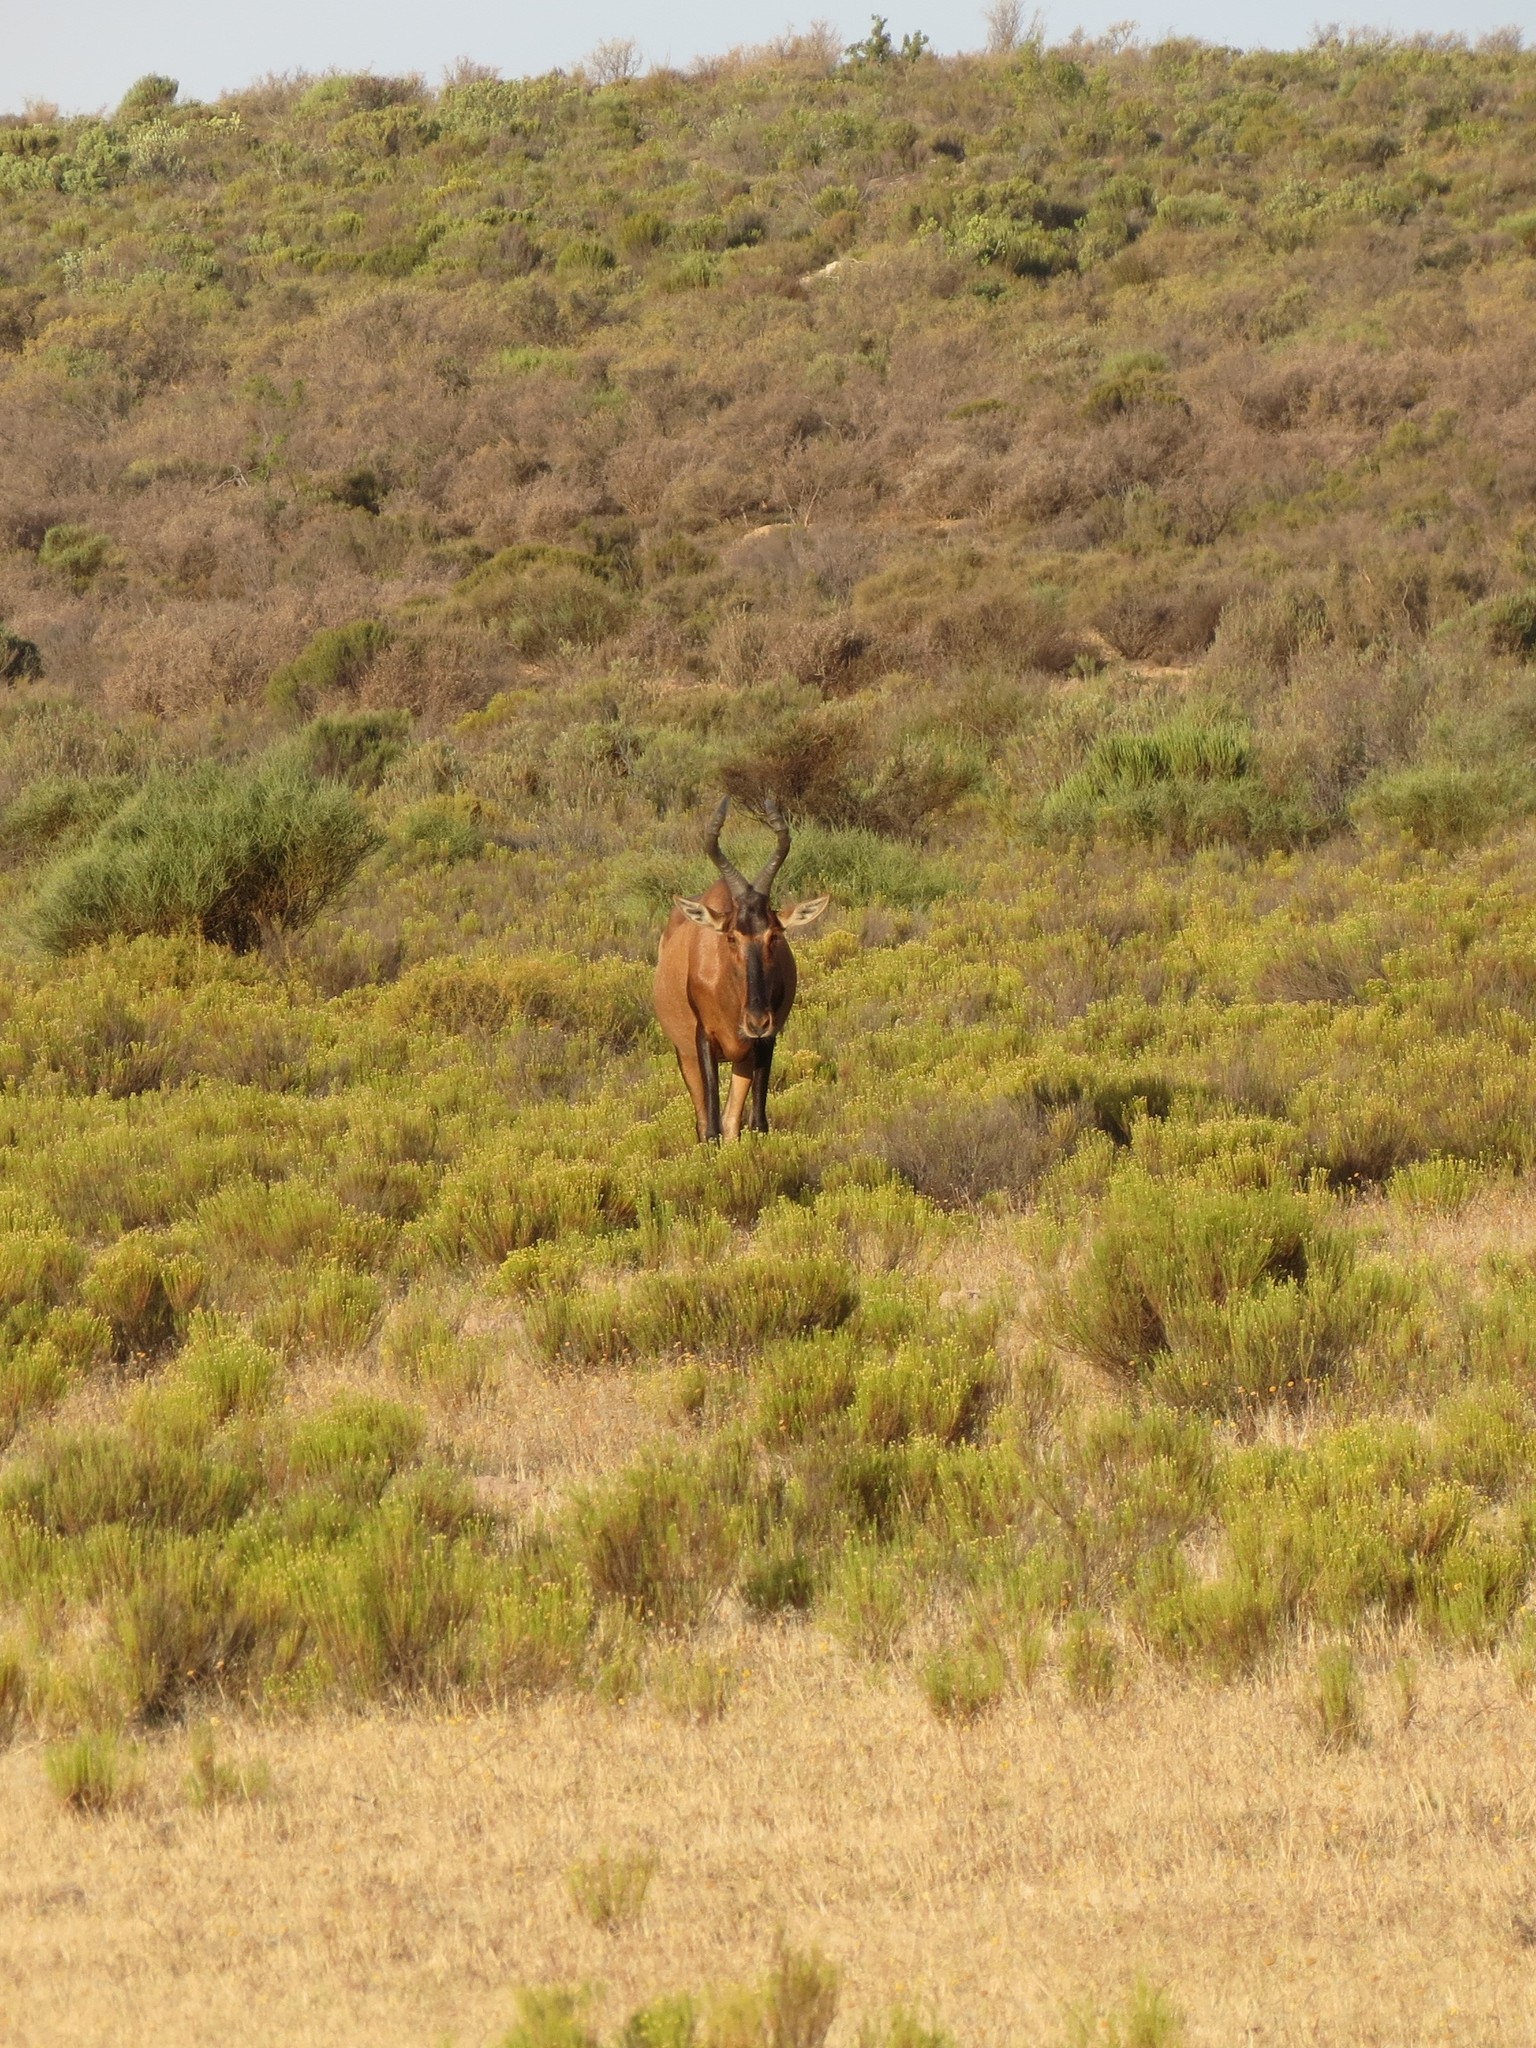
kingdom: Animalia
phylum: Chordata
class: Mammalia
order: Artiodactyla
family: Bovidae
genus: Alcelaphus
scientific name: Alcelaphus caama
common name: Red hartebeest
